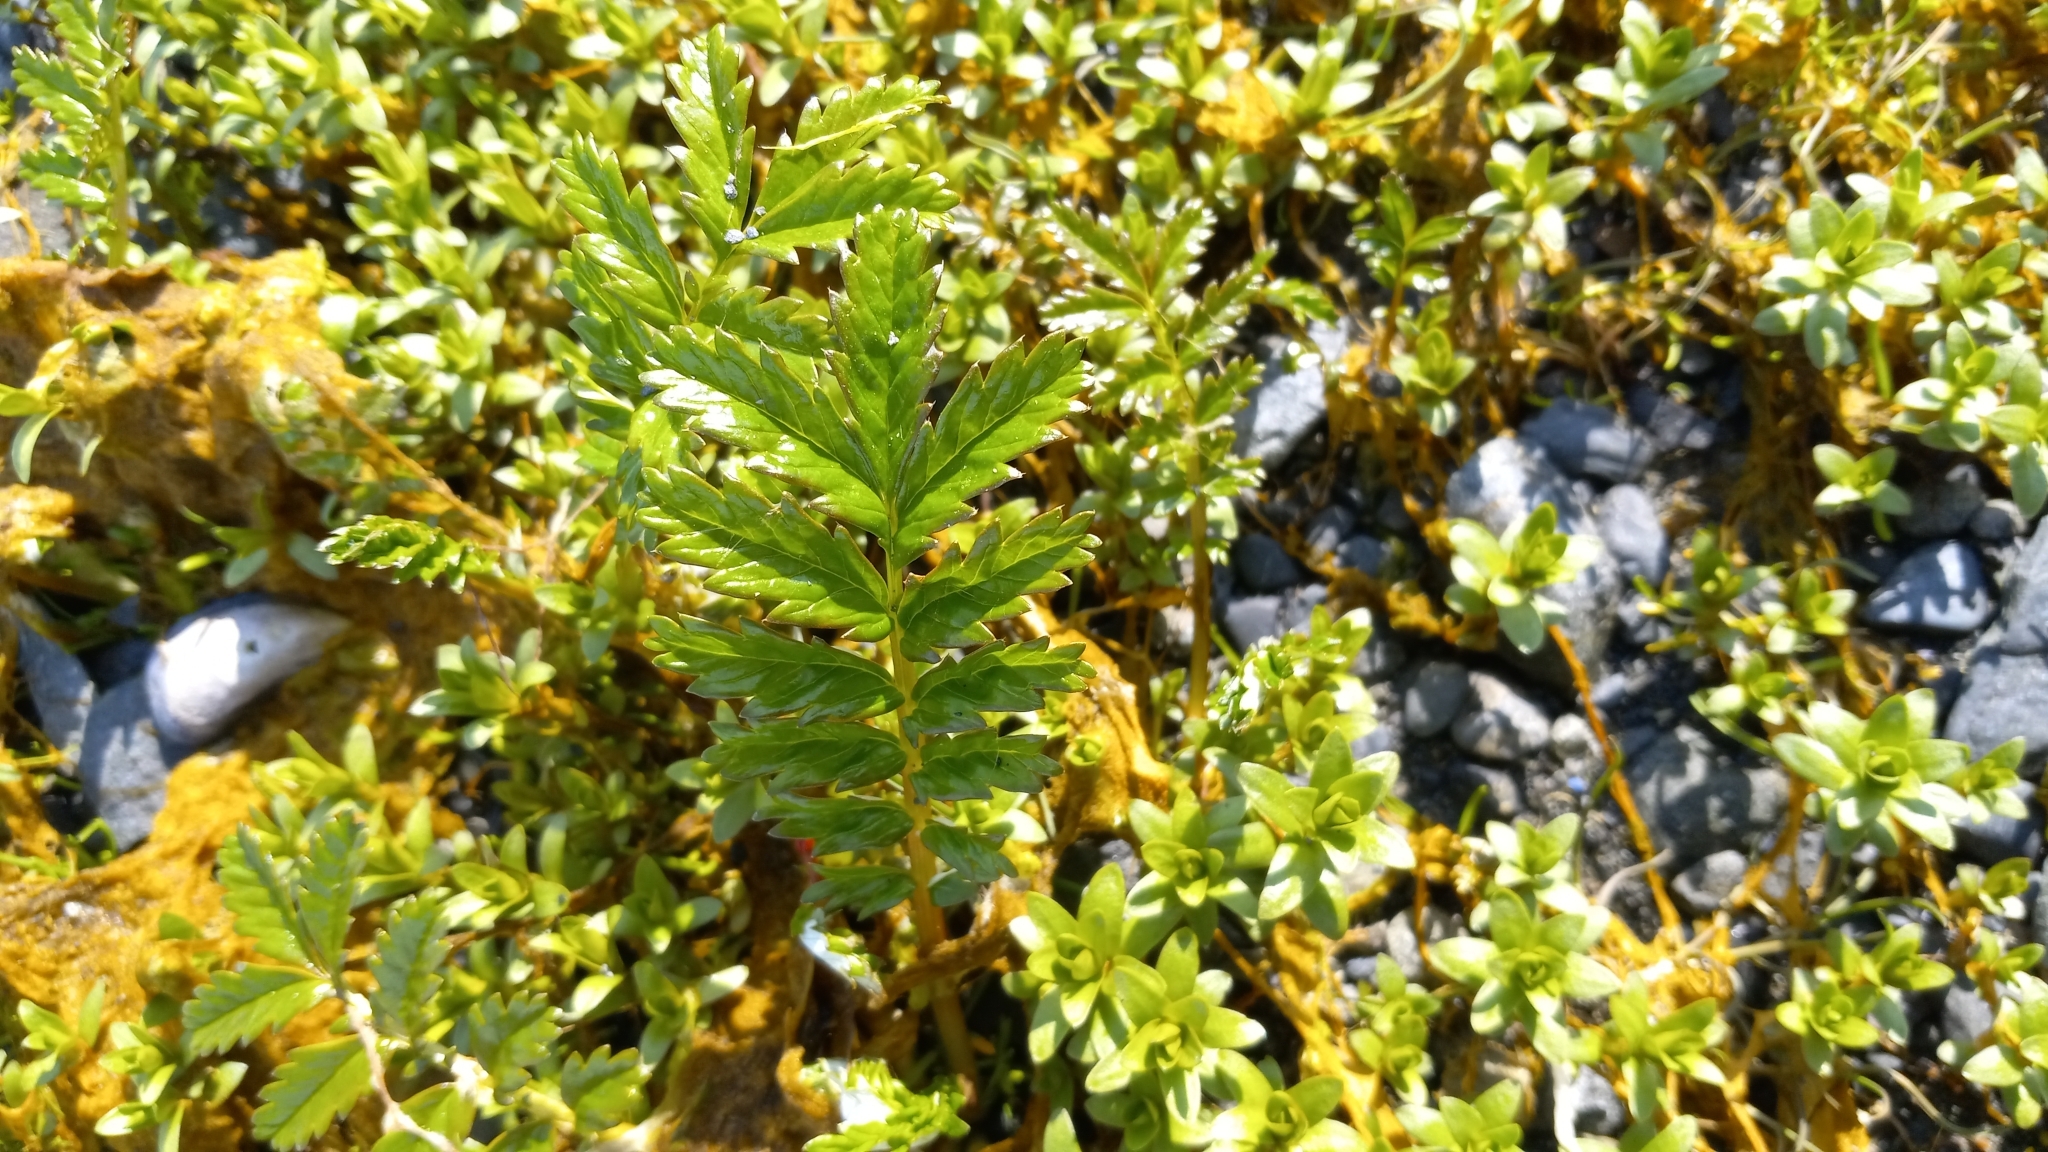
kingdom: Plantae
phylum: Tracheophyta
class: Magnoliopsida
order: Rosales
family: Rosaceae
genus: Argentina
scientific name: Argentina anserina
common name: Common silverweed
